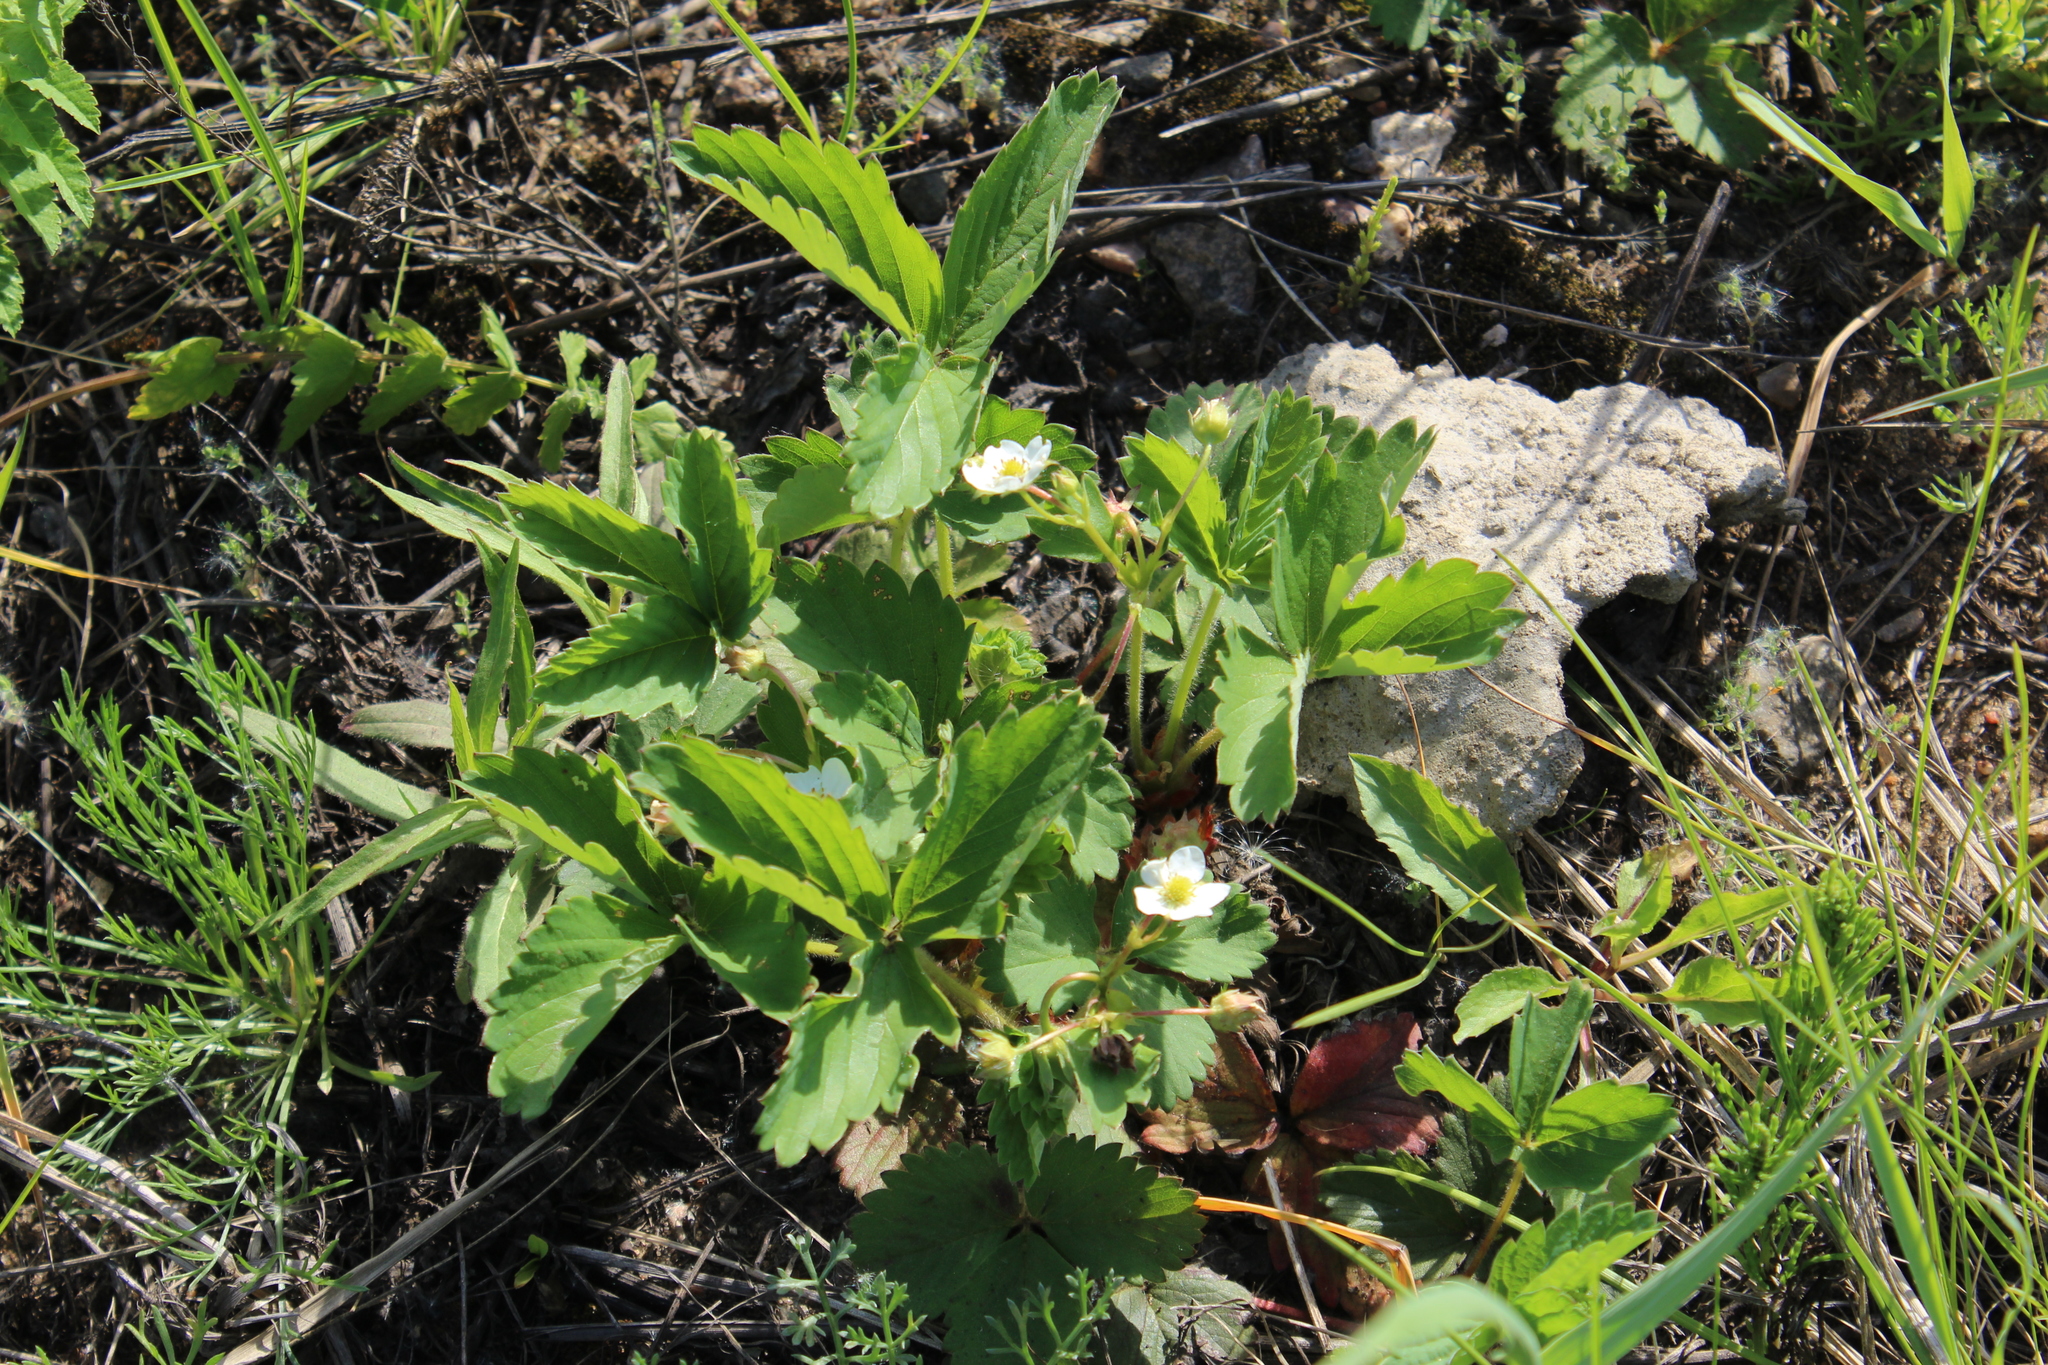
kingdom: Plantae
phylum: Tracheophyta
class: Magnoliopsida
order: Rosales
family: Rosaceae
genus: Fragaria
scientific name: Fragaria ananassa
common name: Garden strawberry
